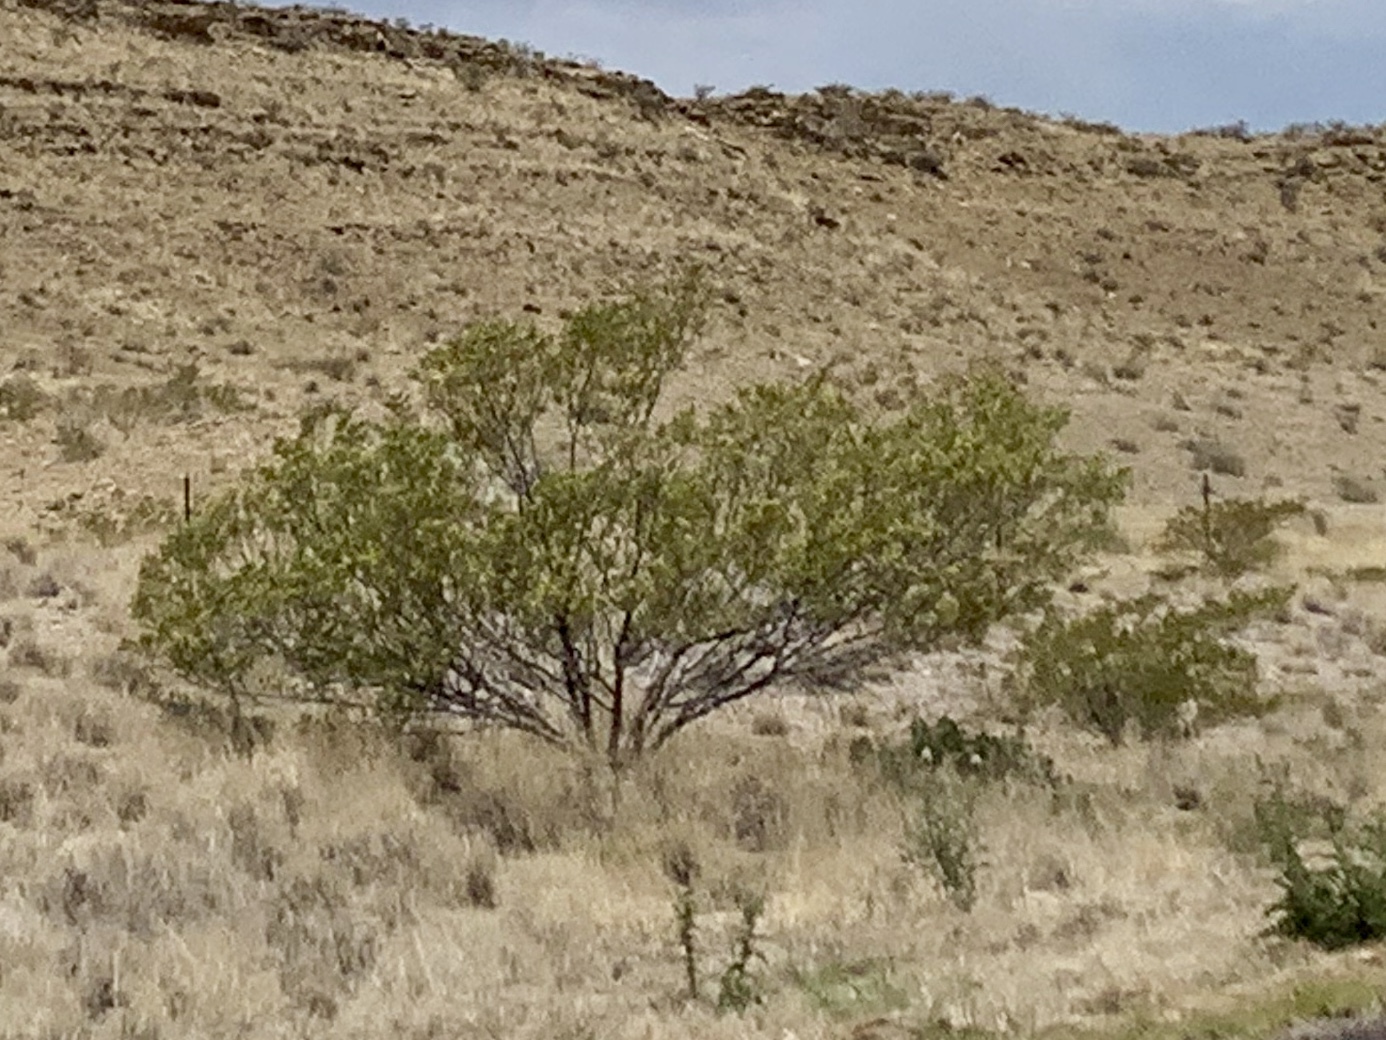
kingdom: Plantae
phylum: Tracheophyta
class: Magnoliopsida
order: Zygophyllales
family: Zygophyllaceae
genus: Larrea
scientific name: Larrea tridentata
